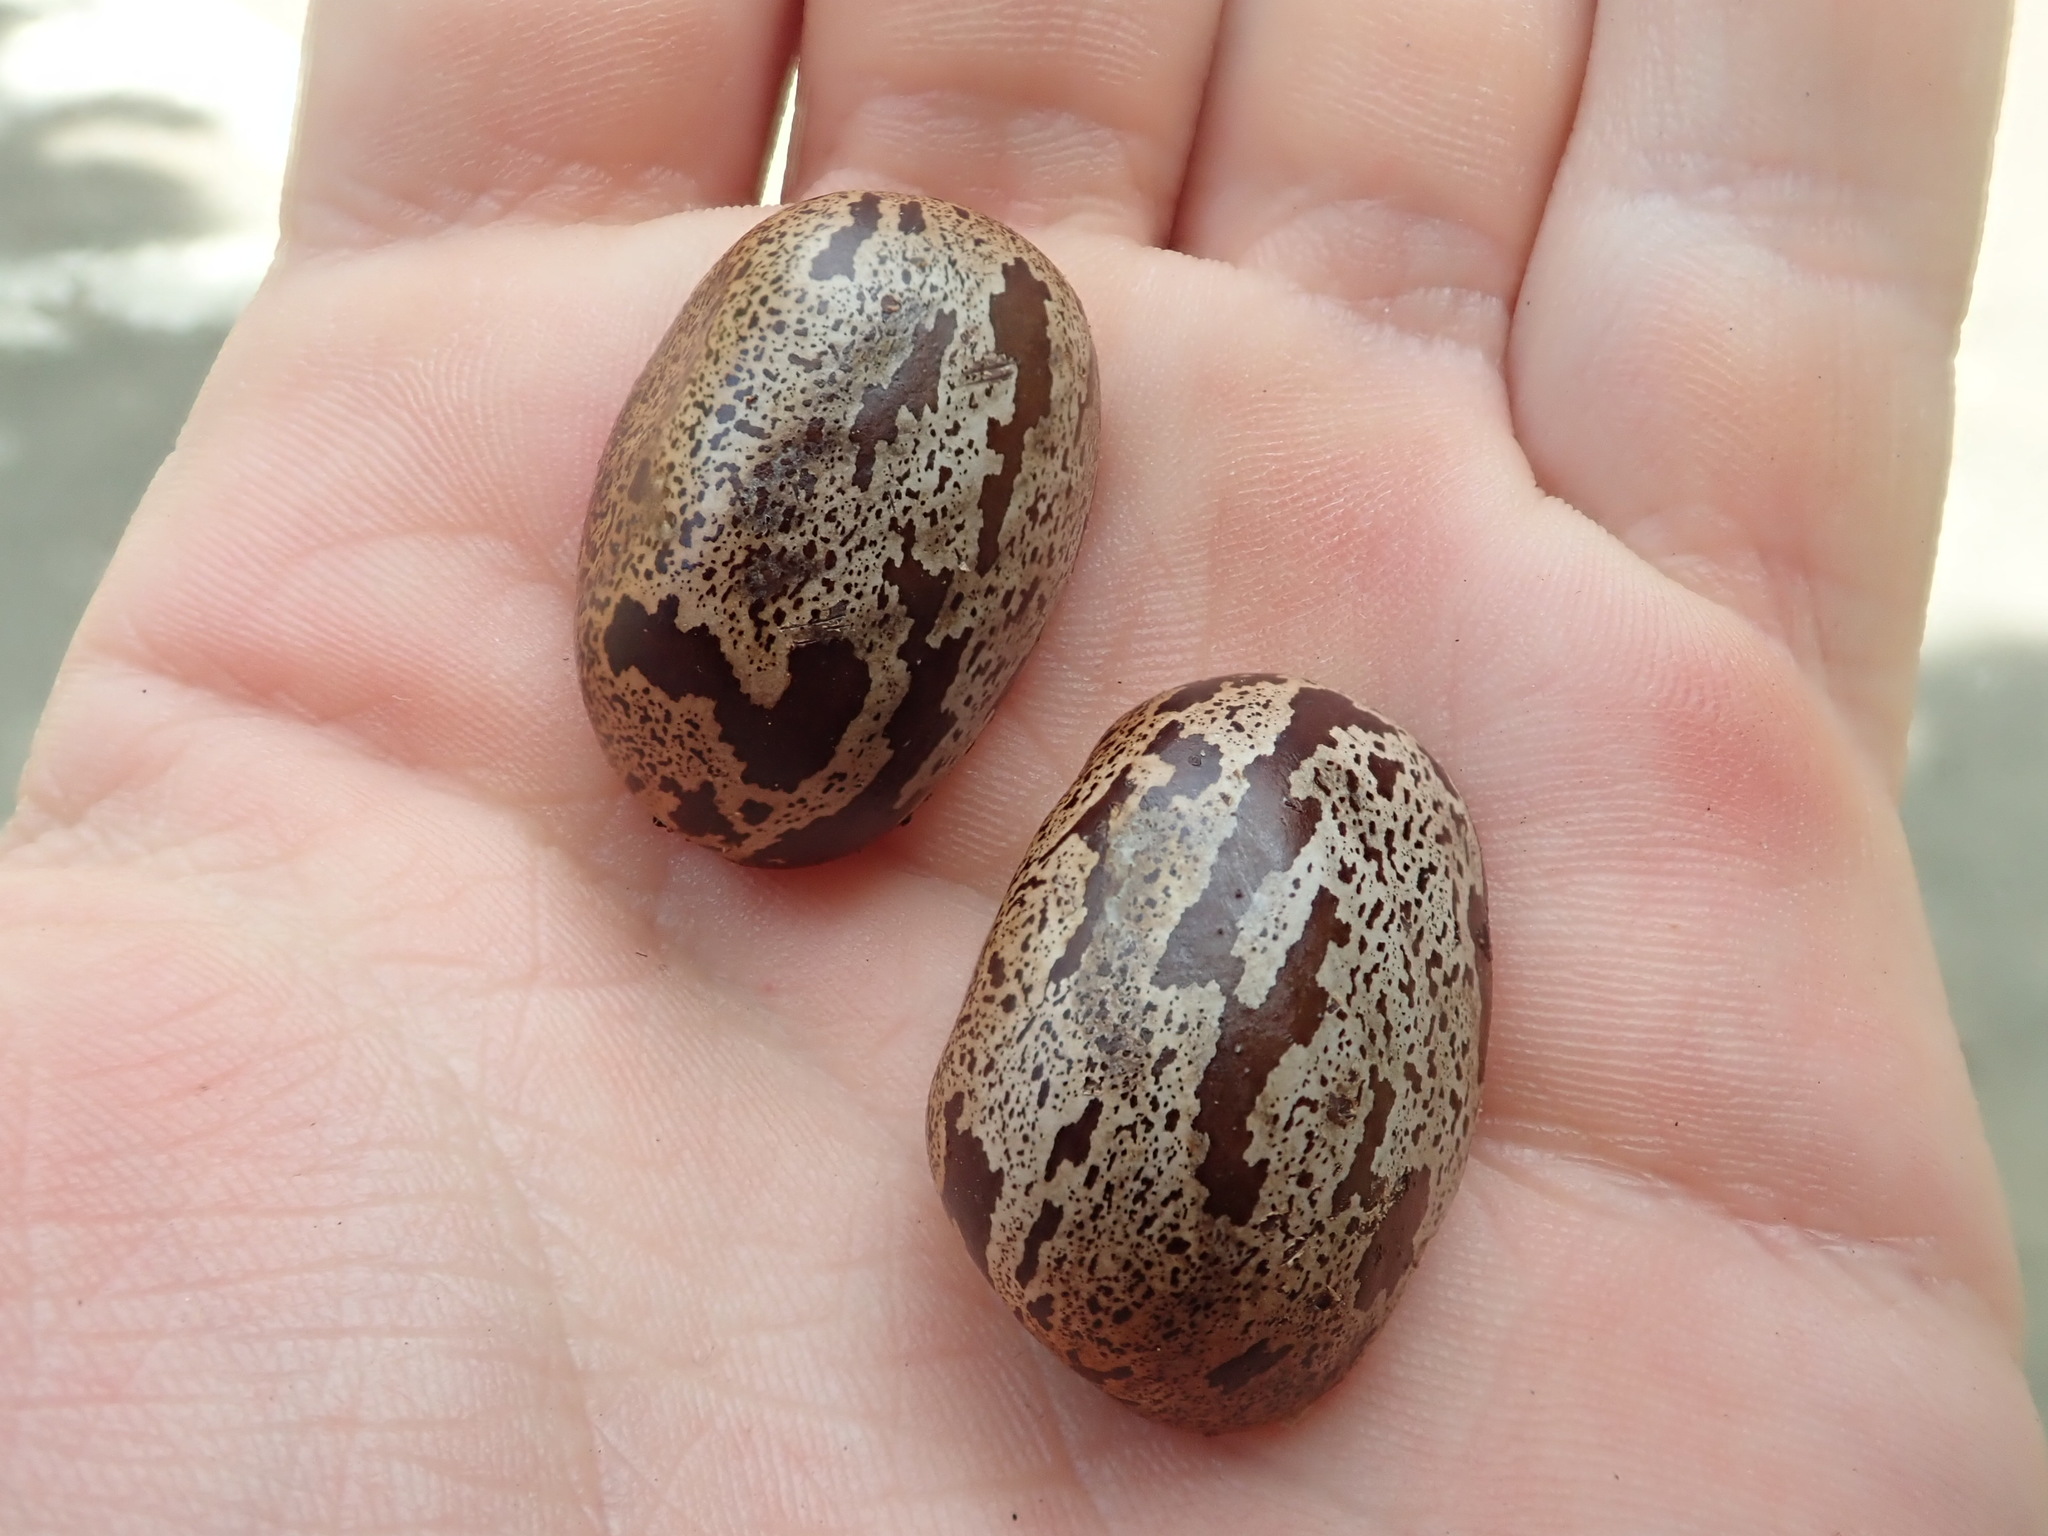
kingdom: Plantae
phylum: Tracheophyta
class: Magnoliopsida
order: Malpighiales
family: Euphorbiaceae
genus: Hevea
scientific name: Hevea brasiliensis
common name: Natural rubber
